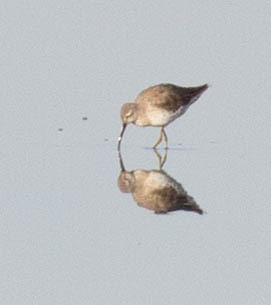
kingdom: Animalia
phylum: Chordata
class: Aves
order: Charadriiformes
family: Scolopacidae
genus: Calidris
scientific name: Calidris himantopus
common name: Stilt sandpiper
